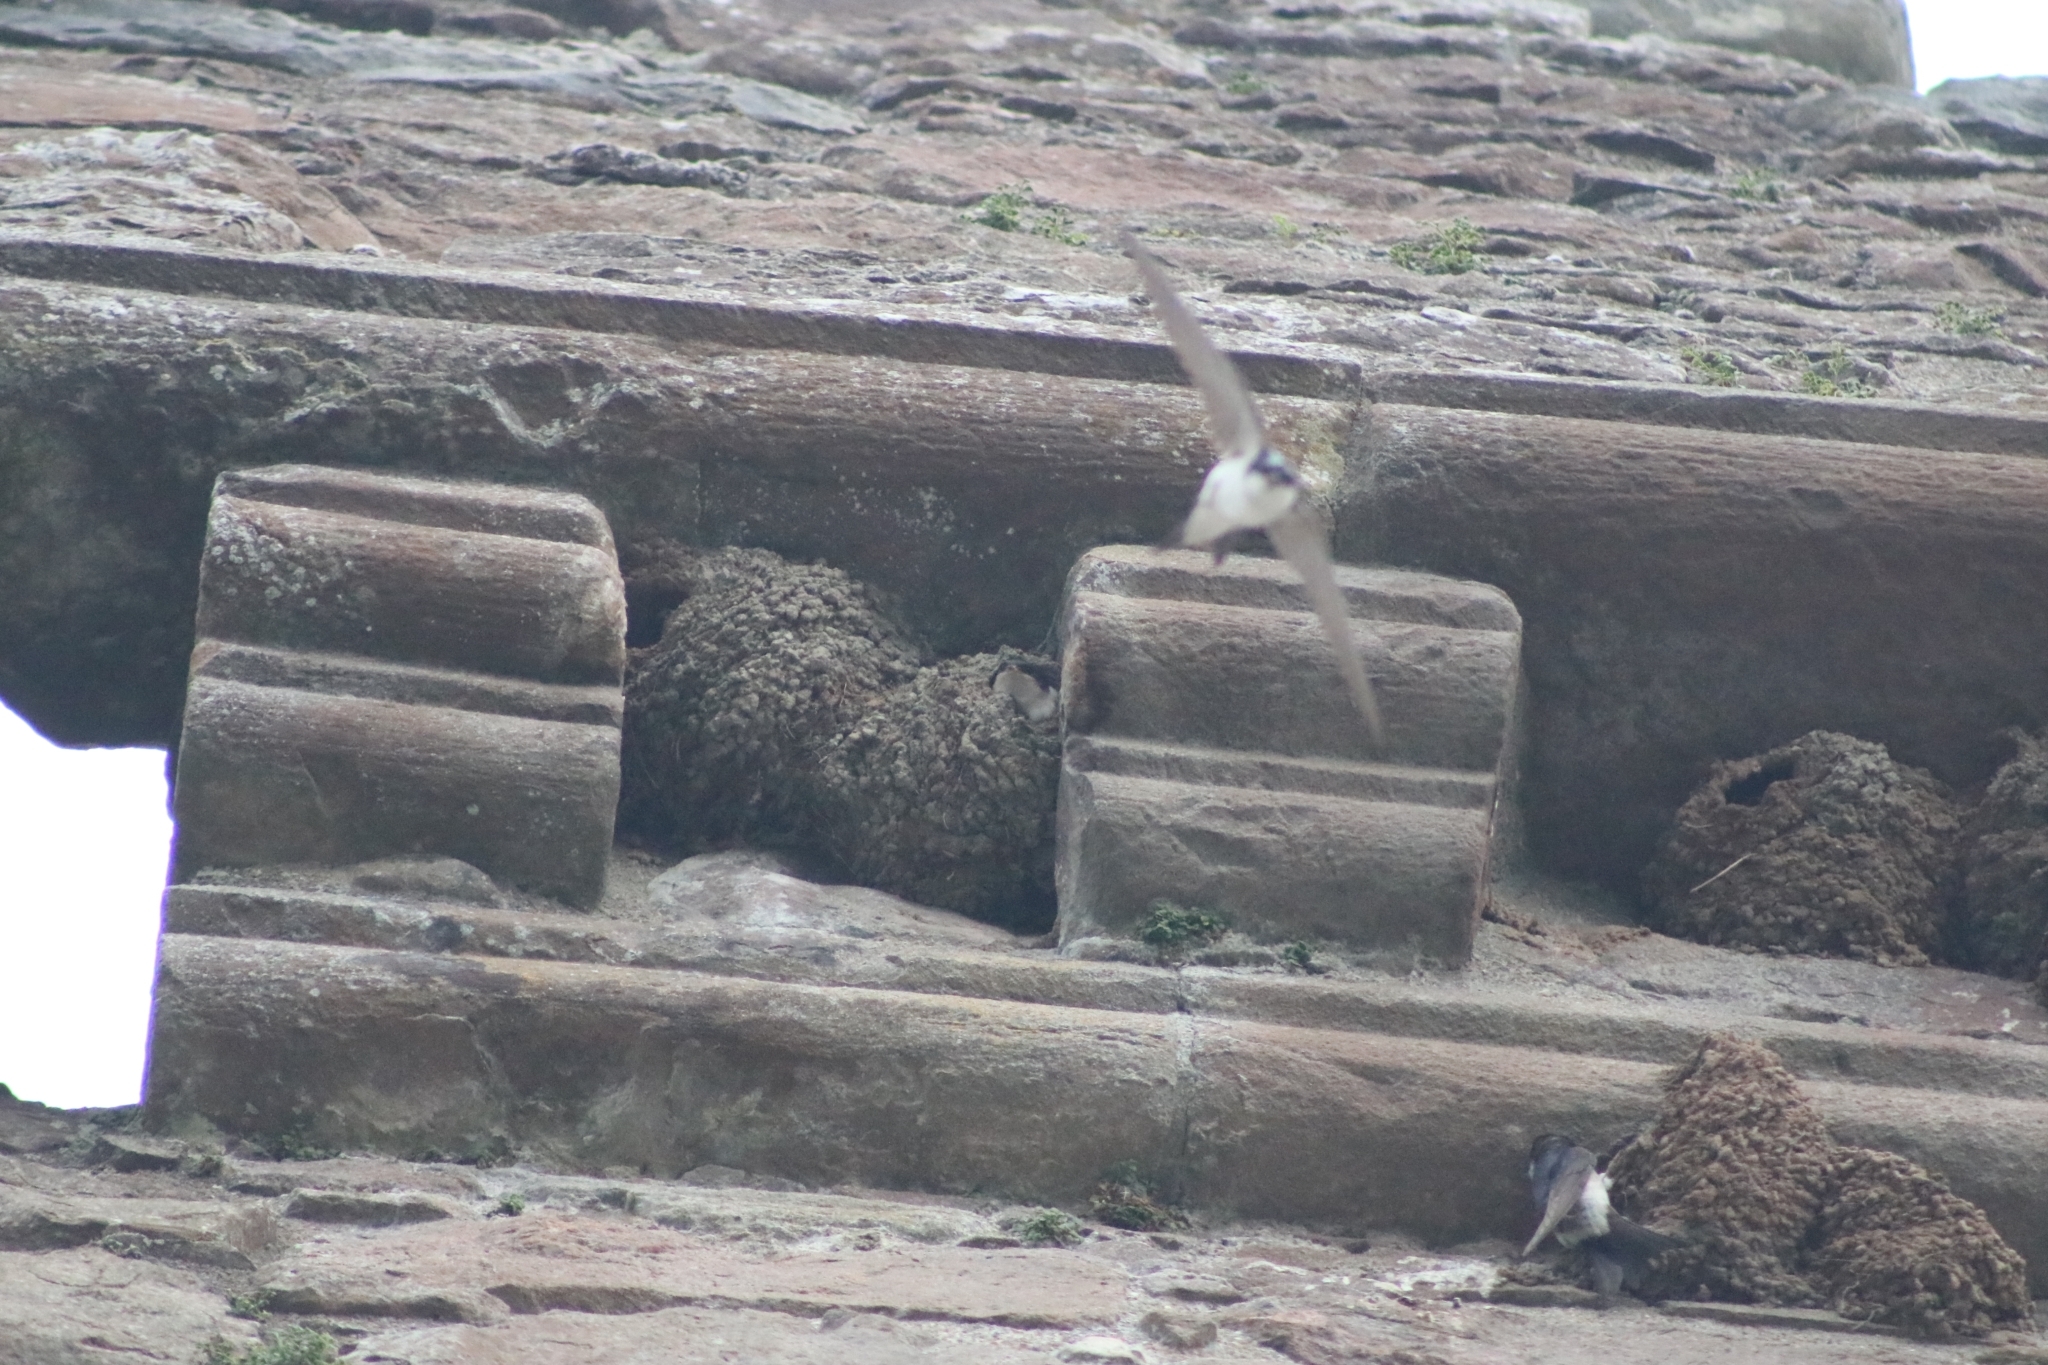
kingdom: Animalia
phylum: Chordata
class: Aves
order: Passeriformes
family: Hirundinidae
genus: Delichon
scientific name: Delichon urbicum
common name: Common house martin
